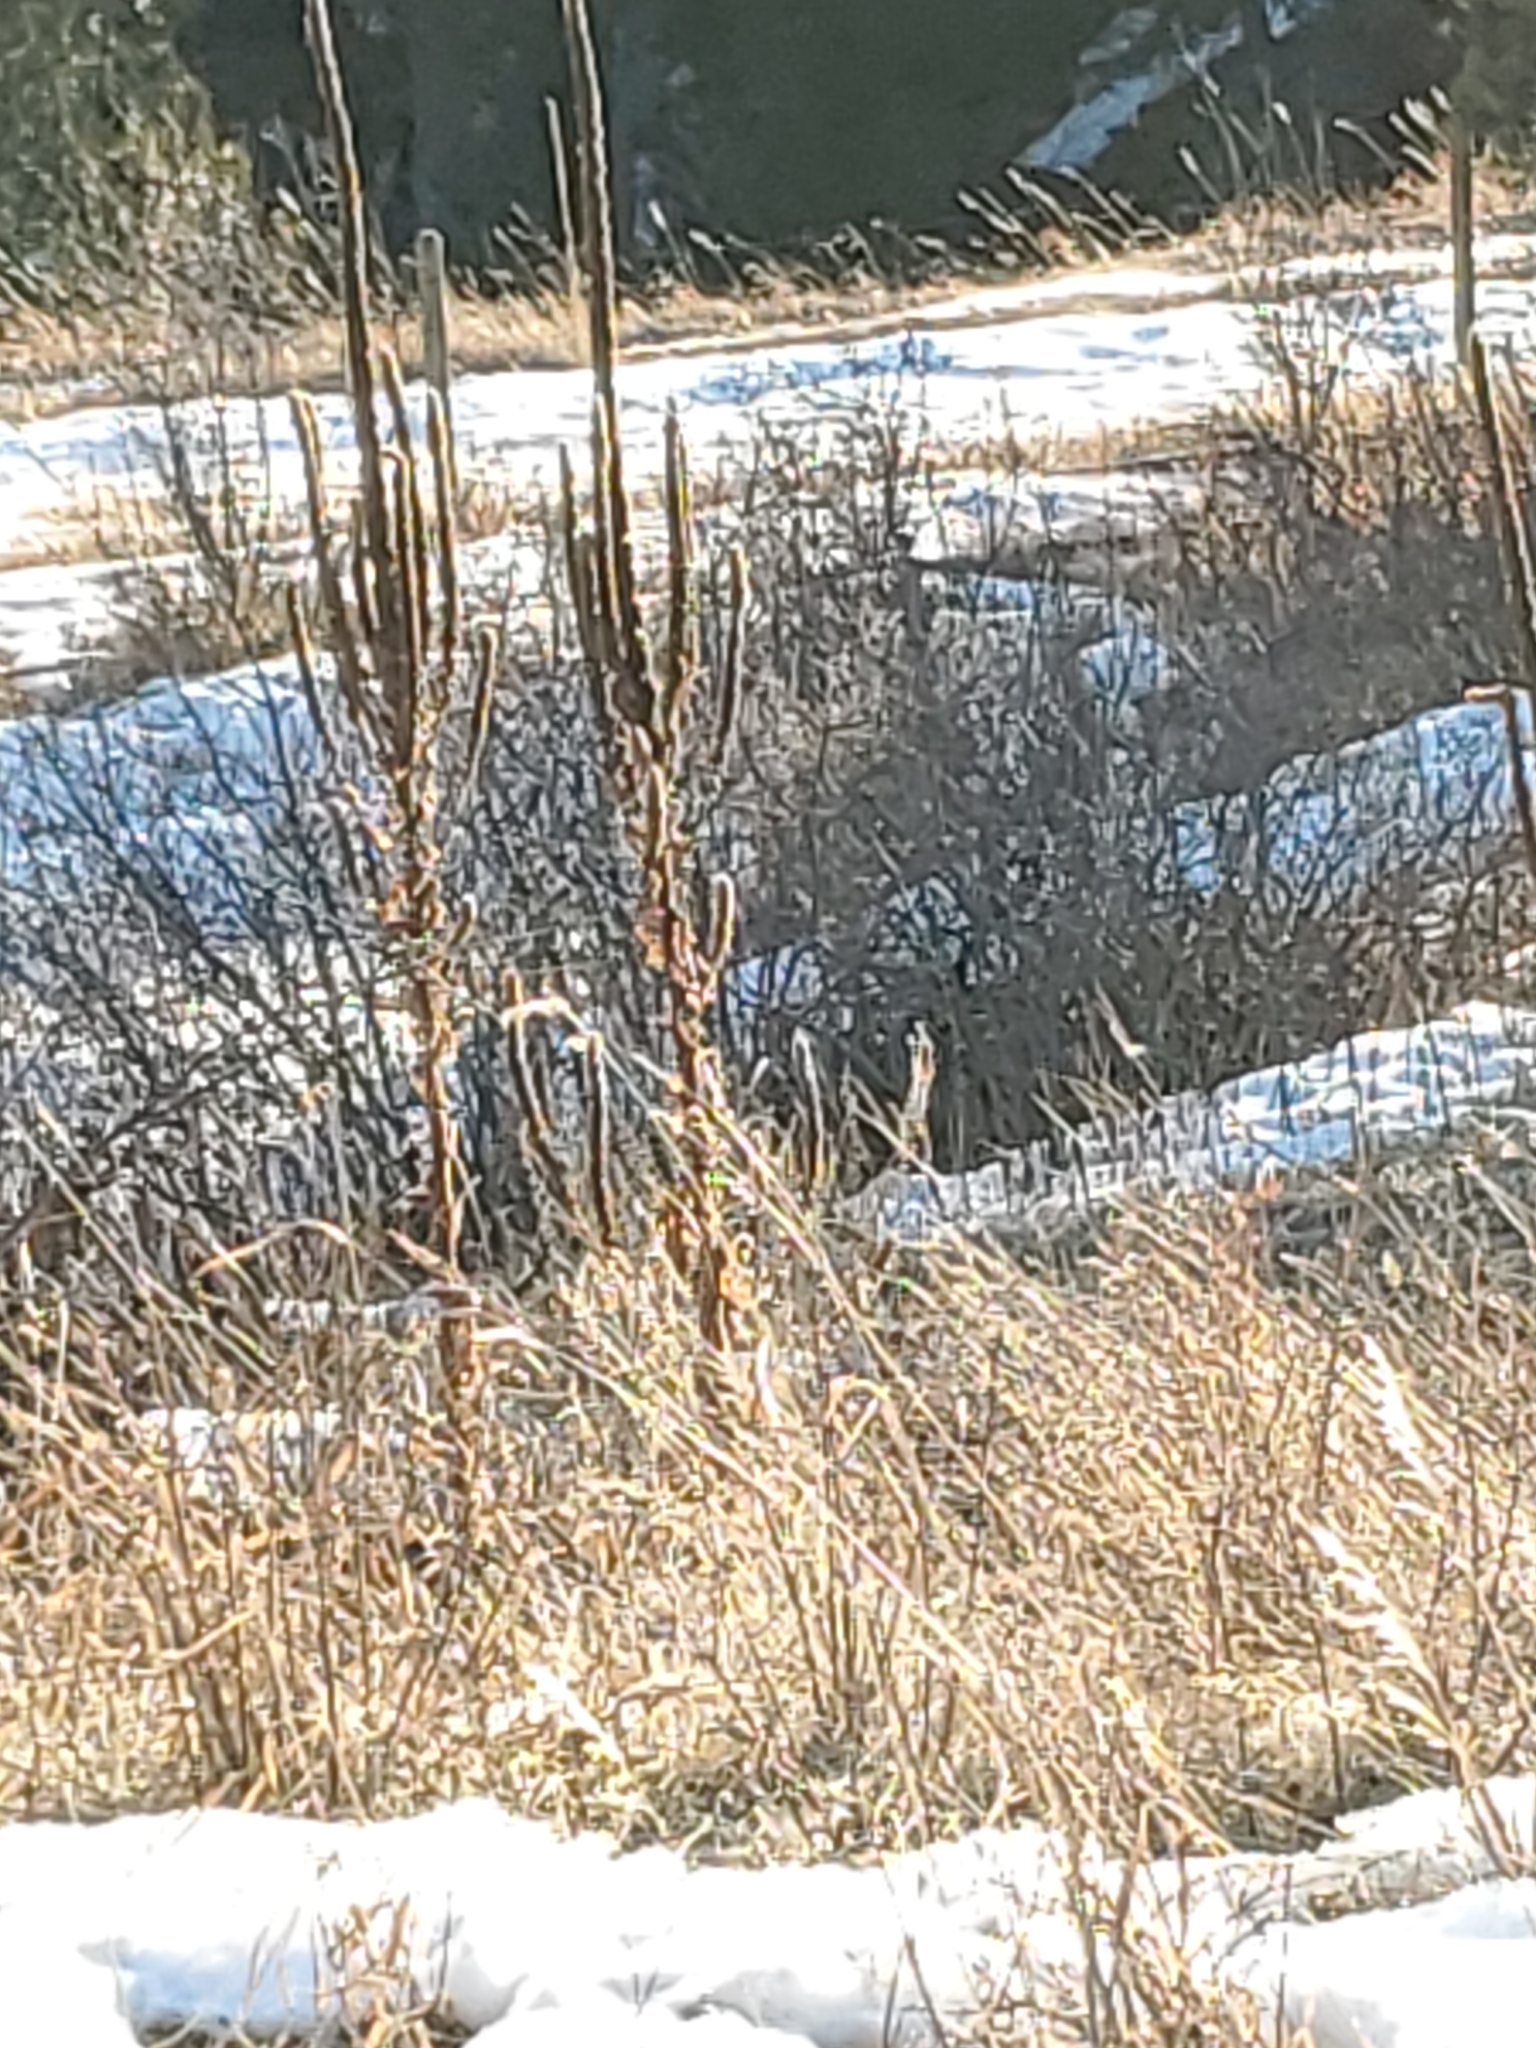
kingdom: Plantae
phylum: Tracheophyta
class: Magnoliopsida
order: Lamiales
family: Scrophulariaceae
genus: Verbascum
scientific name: Verbascum thapsus
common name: Common mullein
